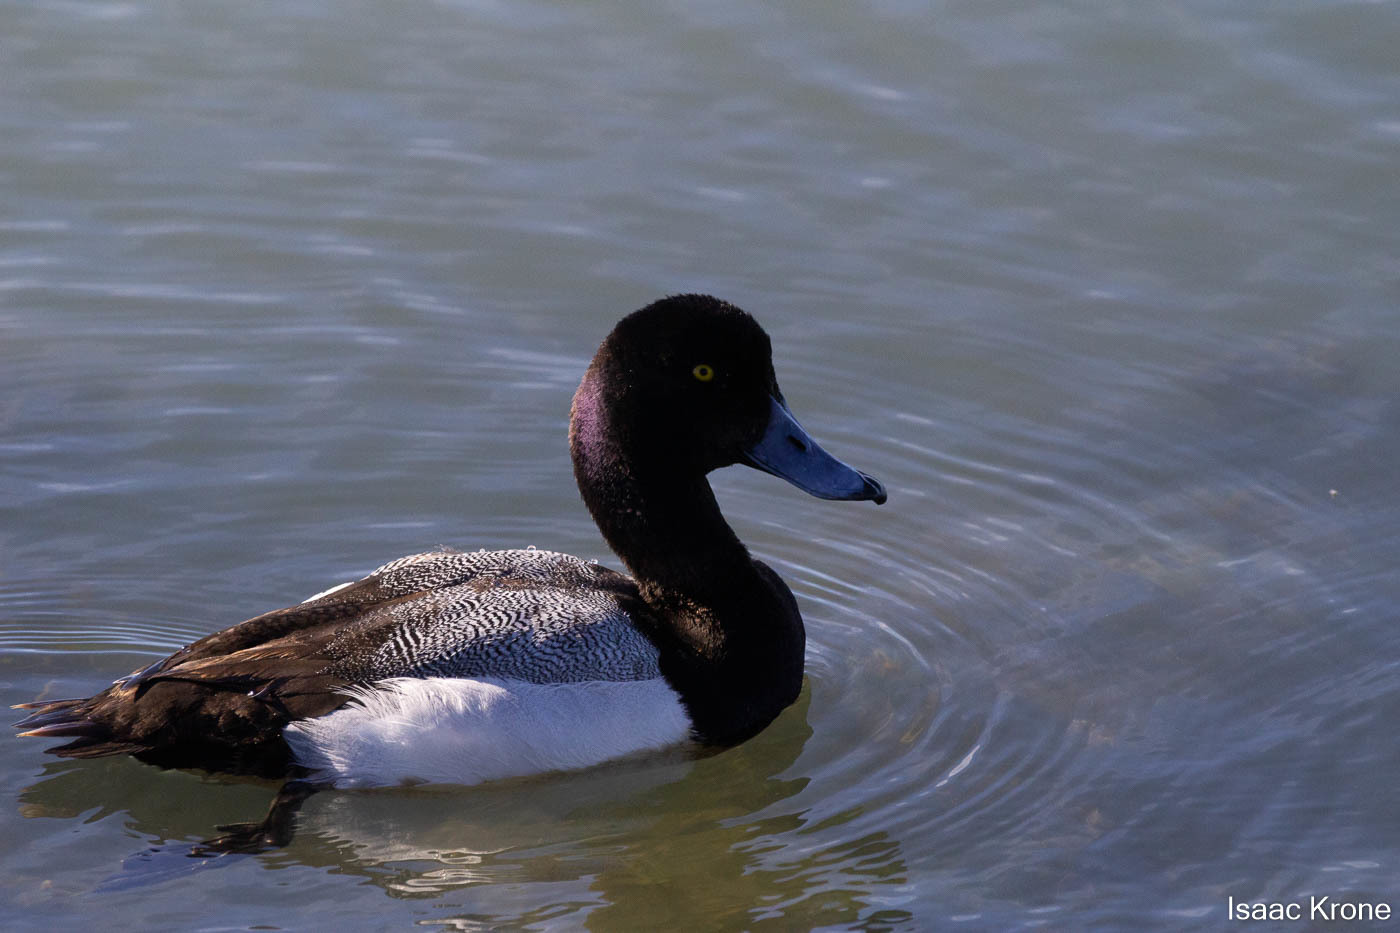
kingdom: Animalia
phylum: Chordata
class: Aves
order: Anseriformes
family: Anatidae
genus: Aythya
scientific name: Aythya affinis
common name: Lesser scaup
